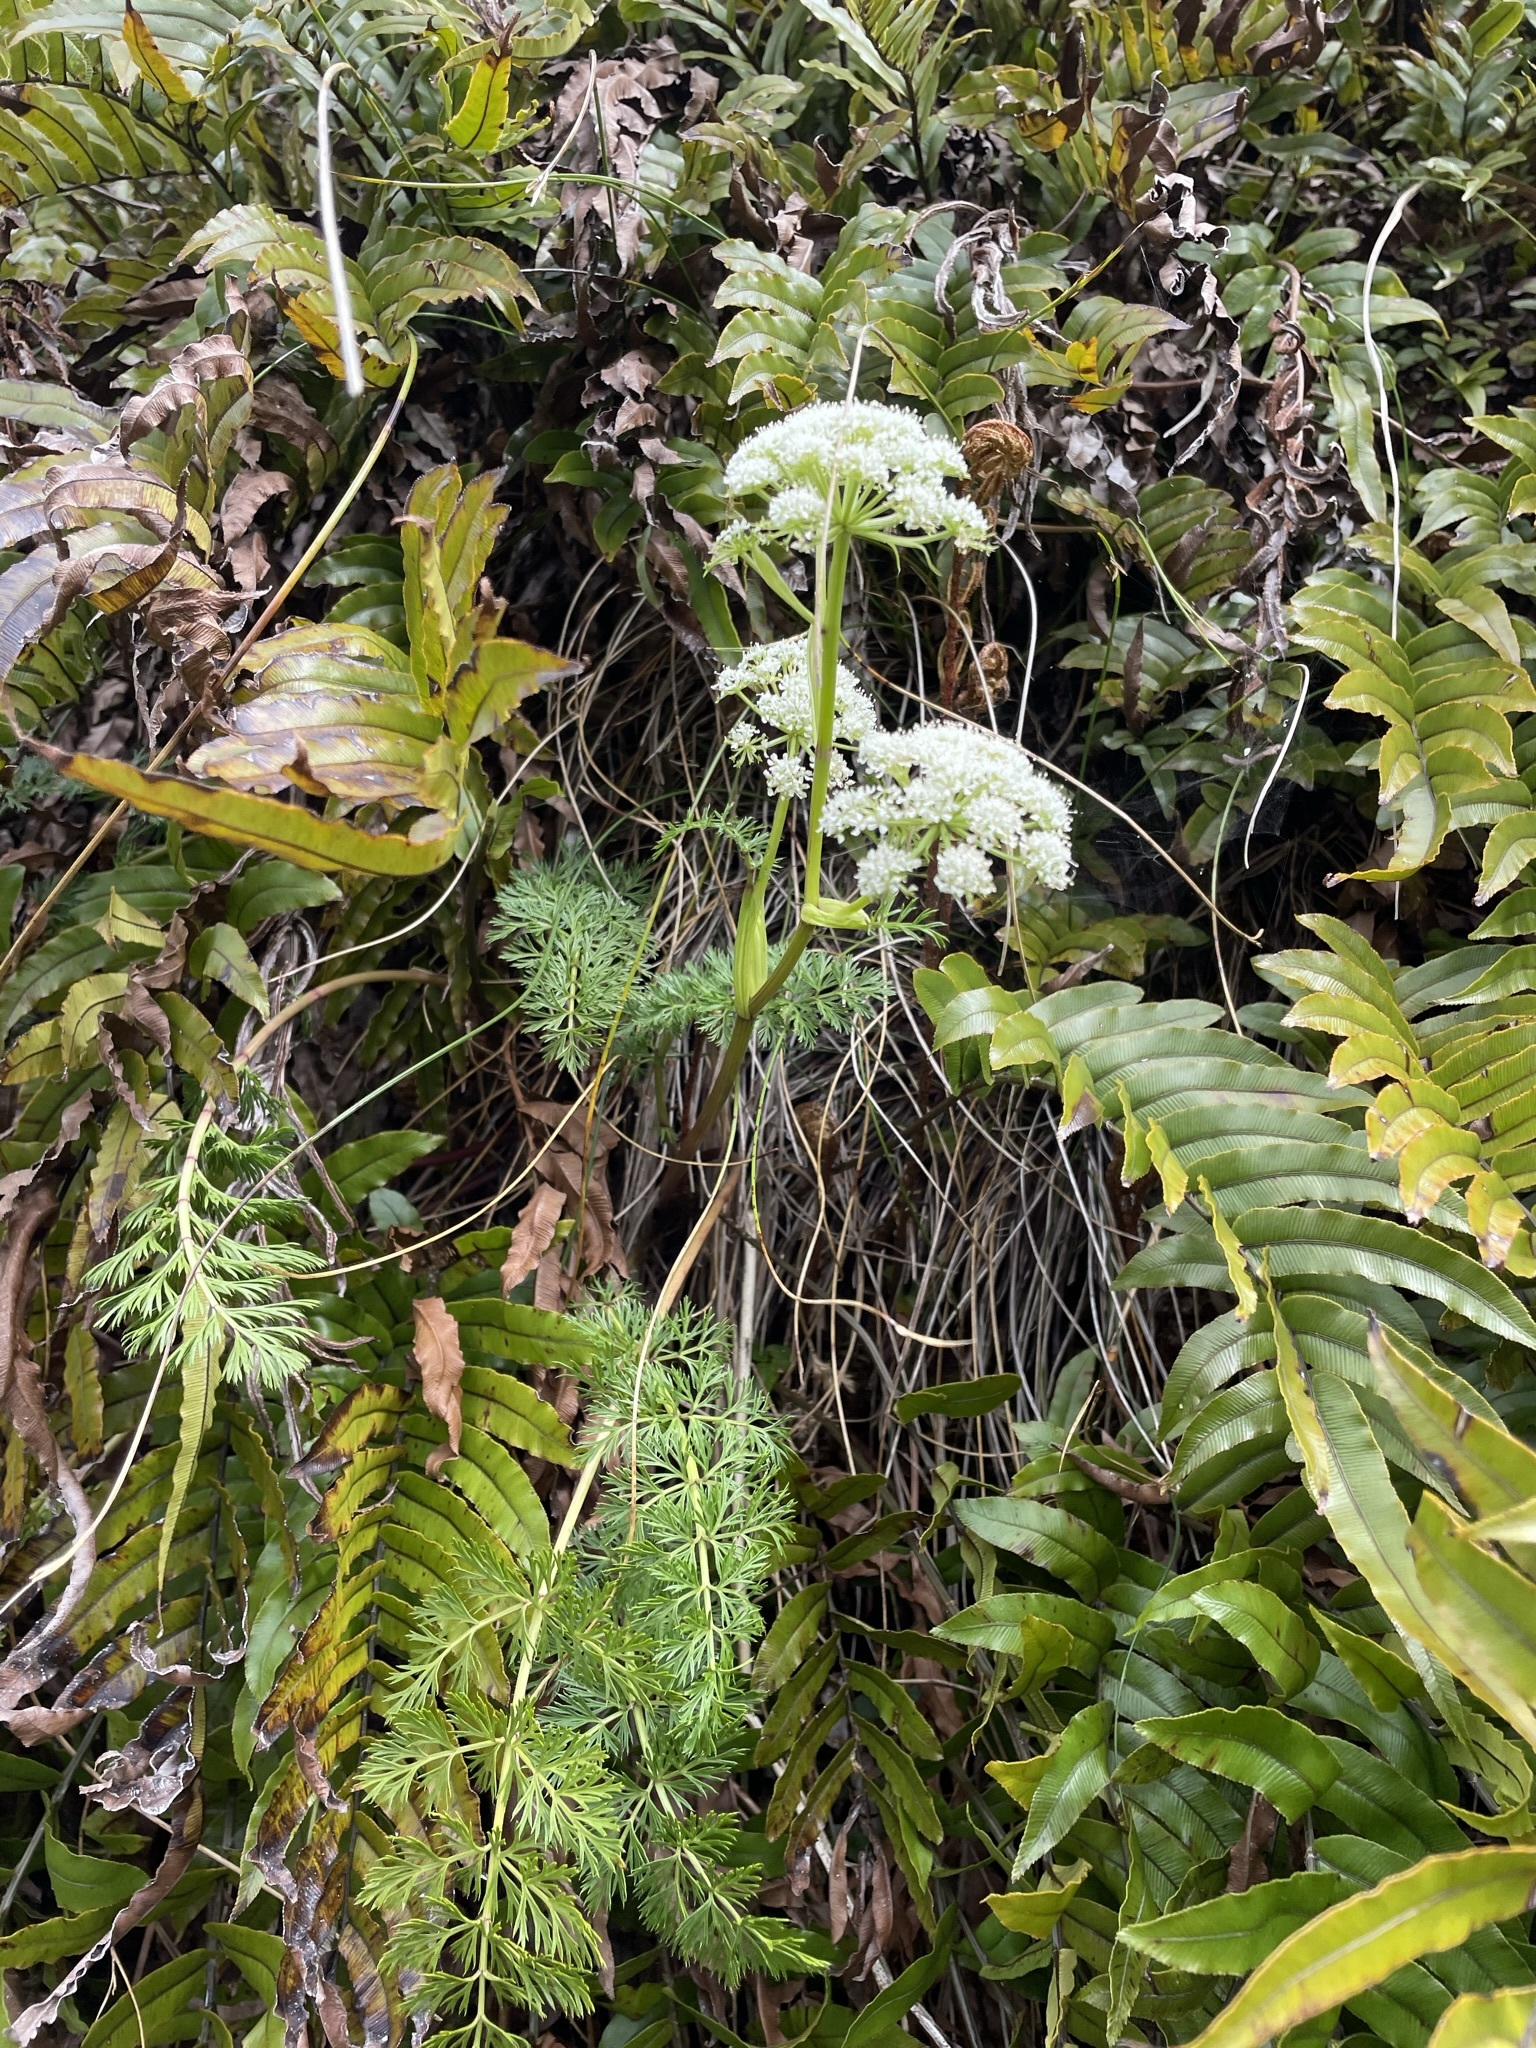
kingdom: Plantae
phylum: Tracheophyta
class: Magnoliopsida
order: Apiales
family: Apiaceae
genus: Anisotome
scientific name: Anisotome haastii
